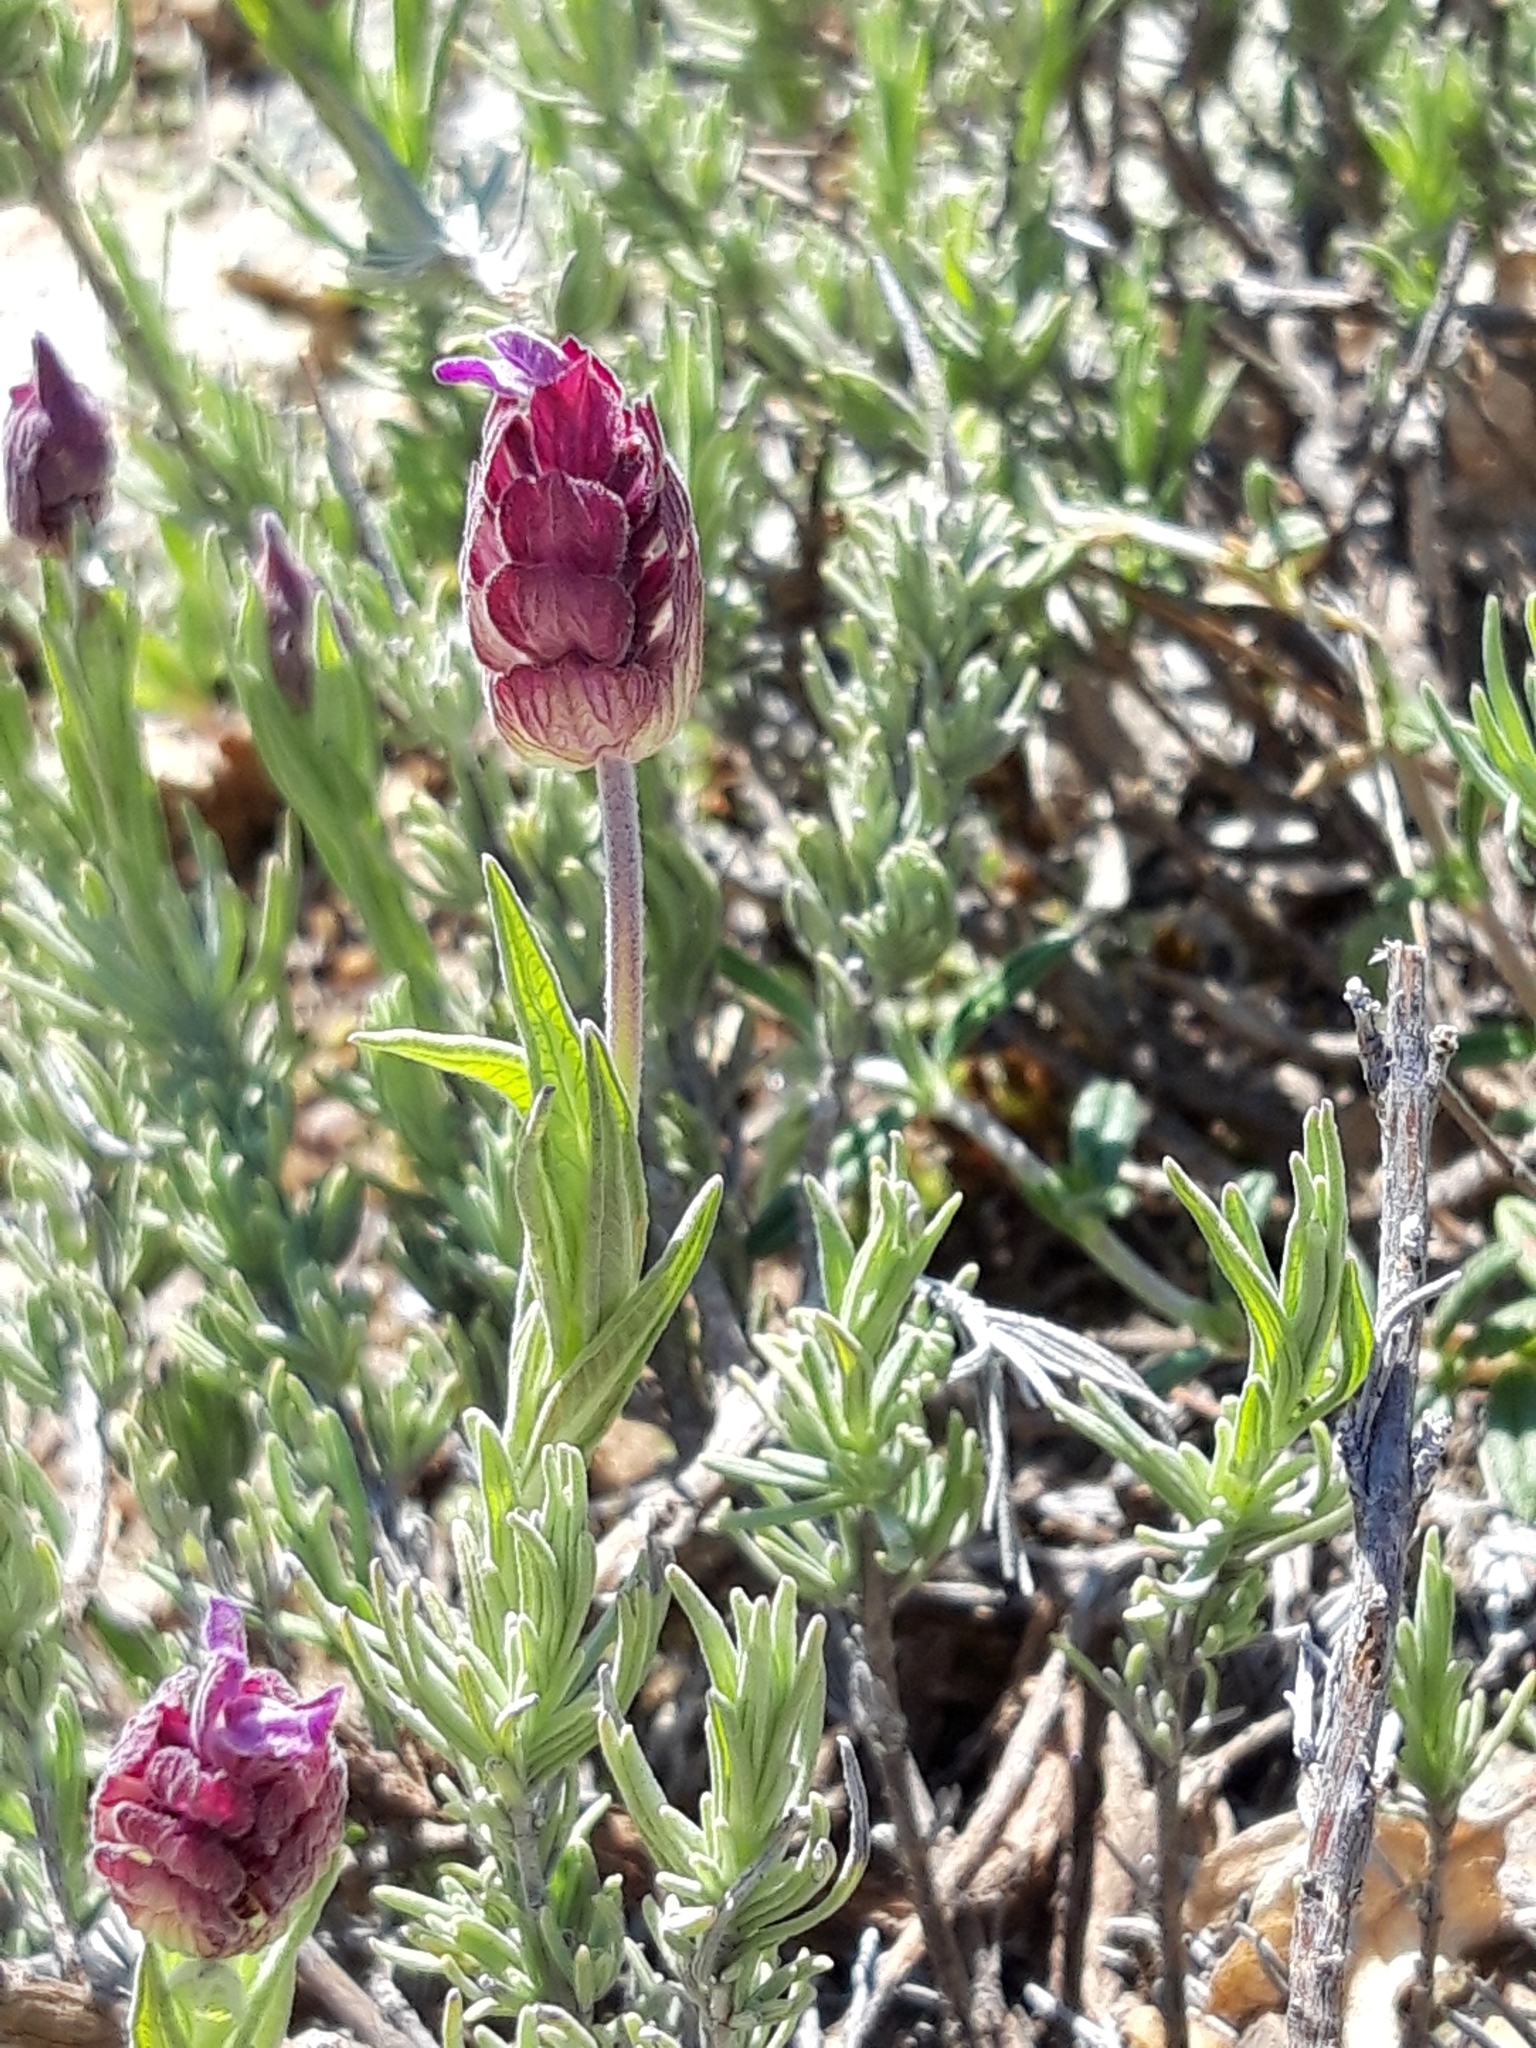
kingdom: Plantae
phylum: Tracheophyta
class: Magnoliopsida
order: Lamiales
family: Lamiaceae
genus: Lavandula
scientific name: Lavandula pedunculata
